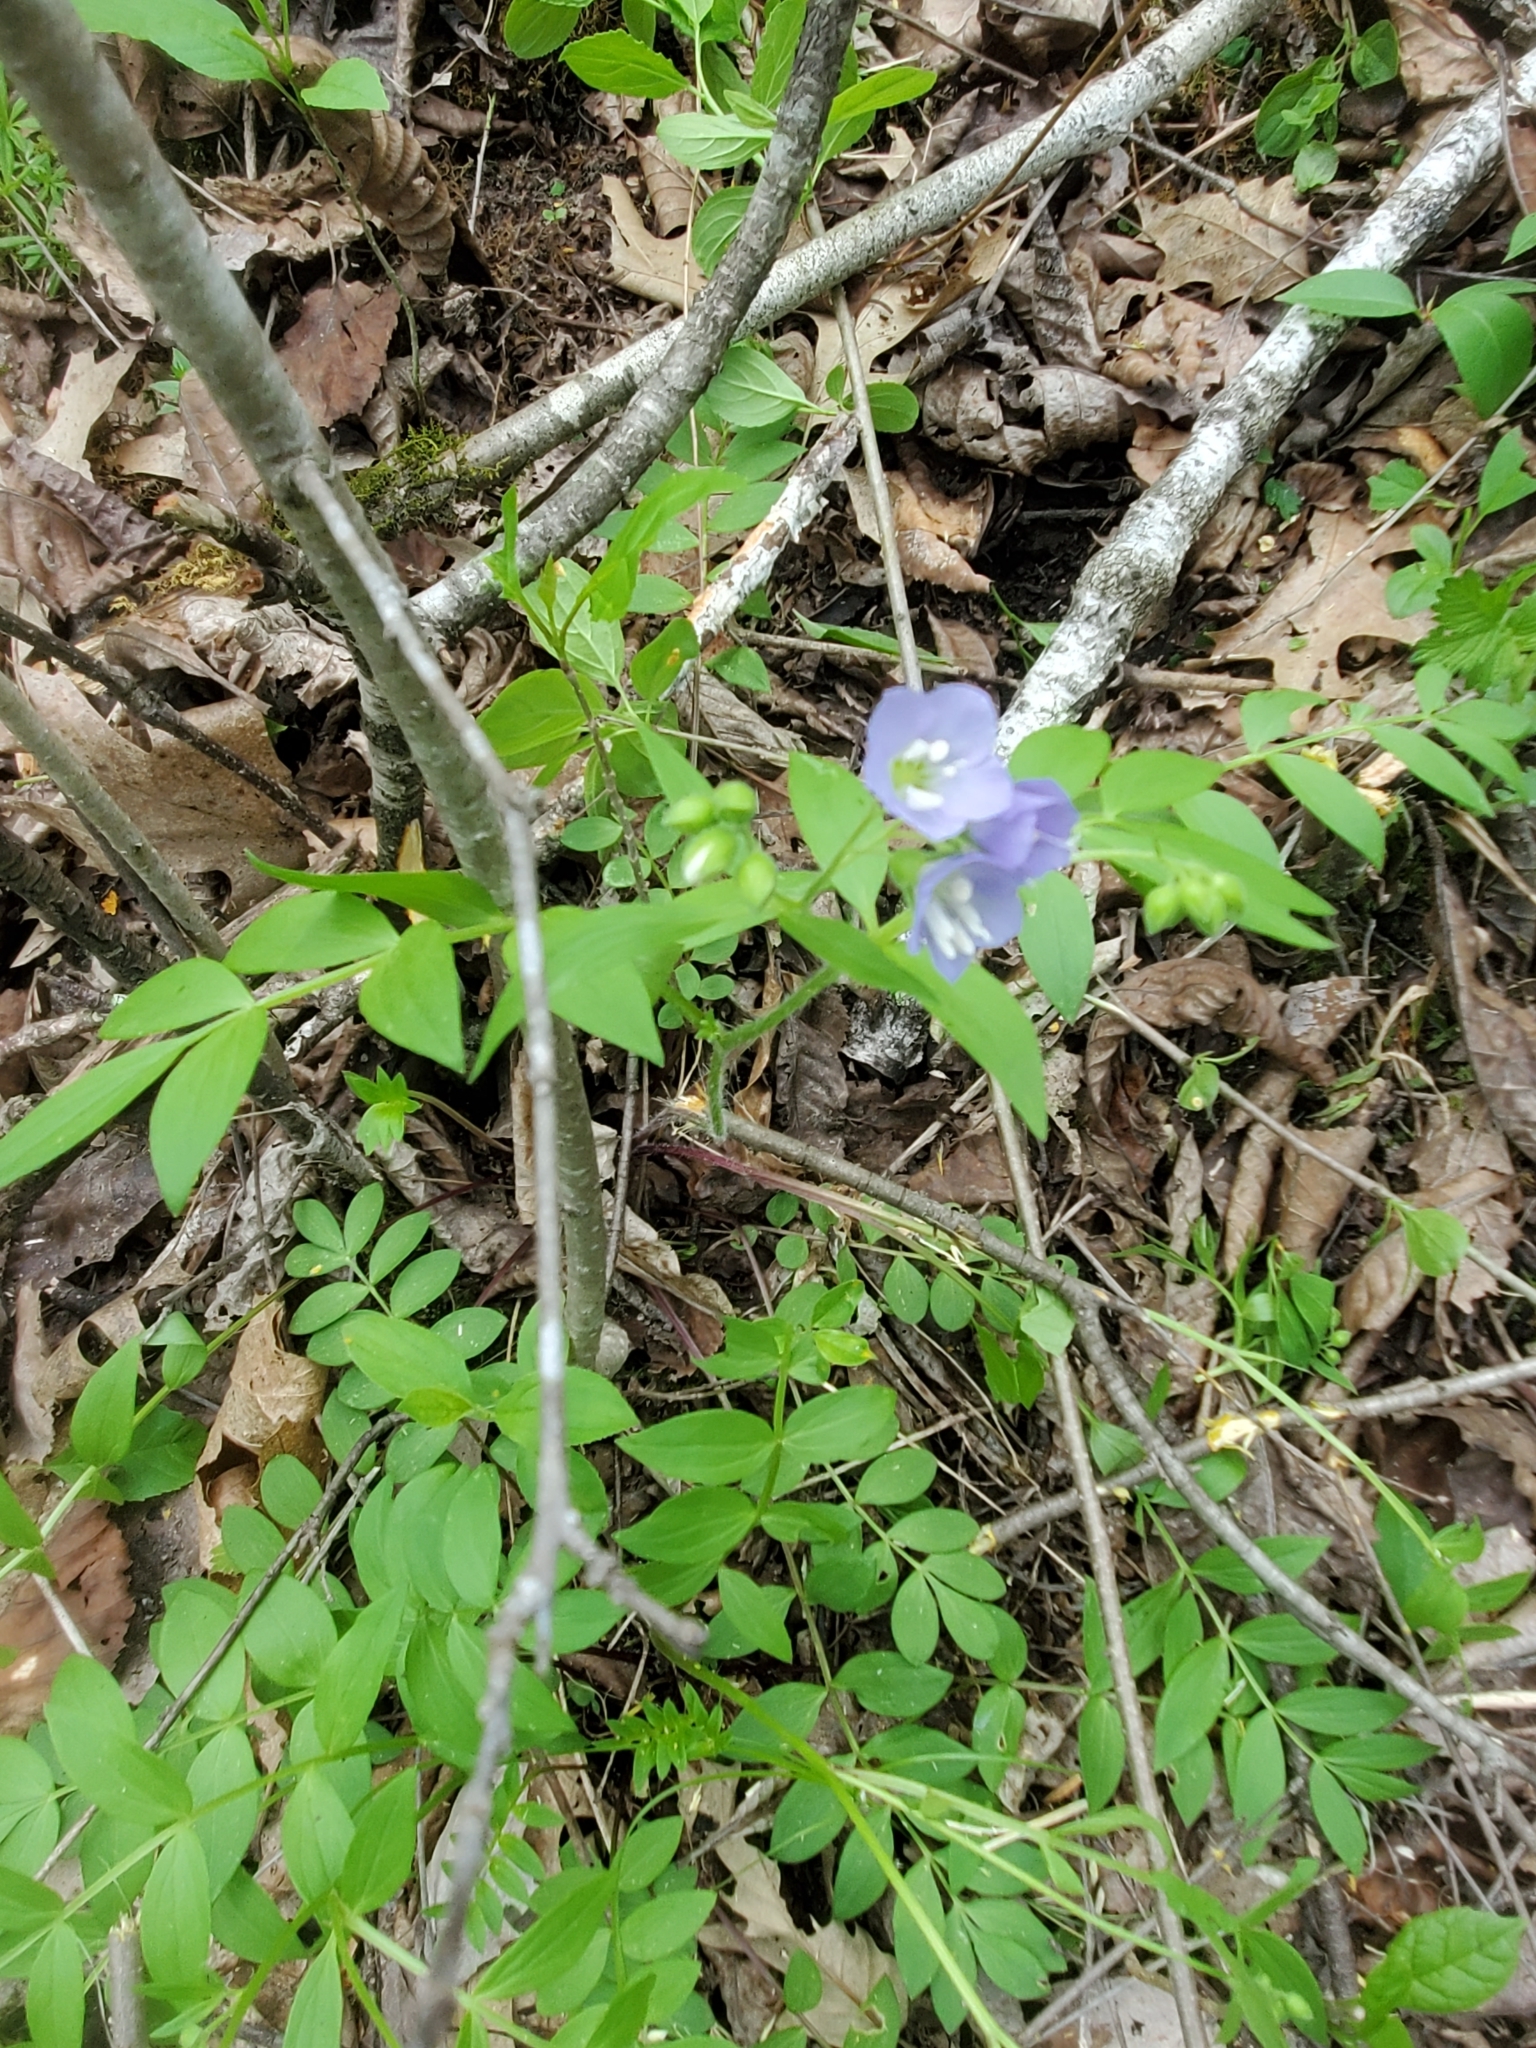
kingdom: Plantae
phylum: Tracheophyta
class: Magnoliopsida
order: Ericales
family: Polemoniaceae
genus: Polemonium
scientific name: Polemonium reptans
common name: Creeping jacob's-ladder
